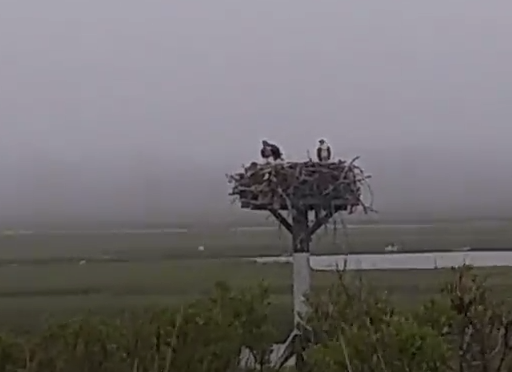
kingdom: Animalia
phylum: Chordata
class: Aves
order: Accipitriformes
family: Pandionidae
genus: Pandion
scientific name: Pandion haliaetus
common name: Osprey
